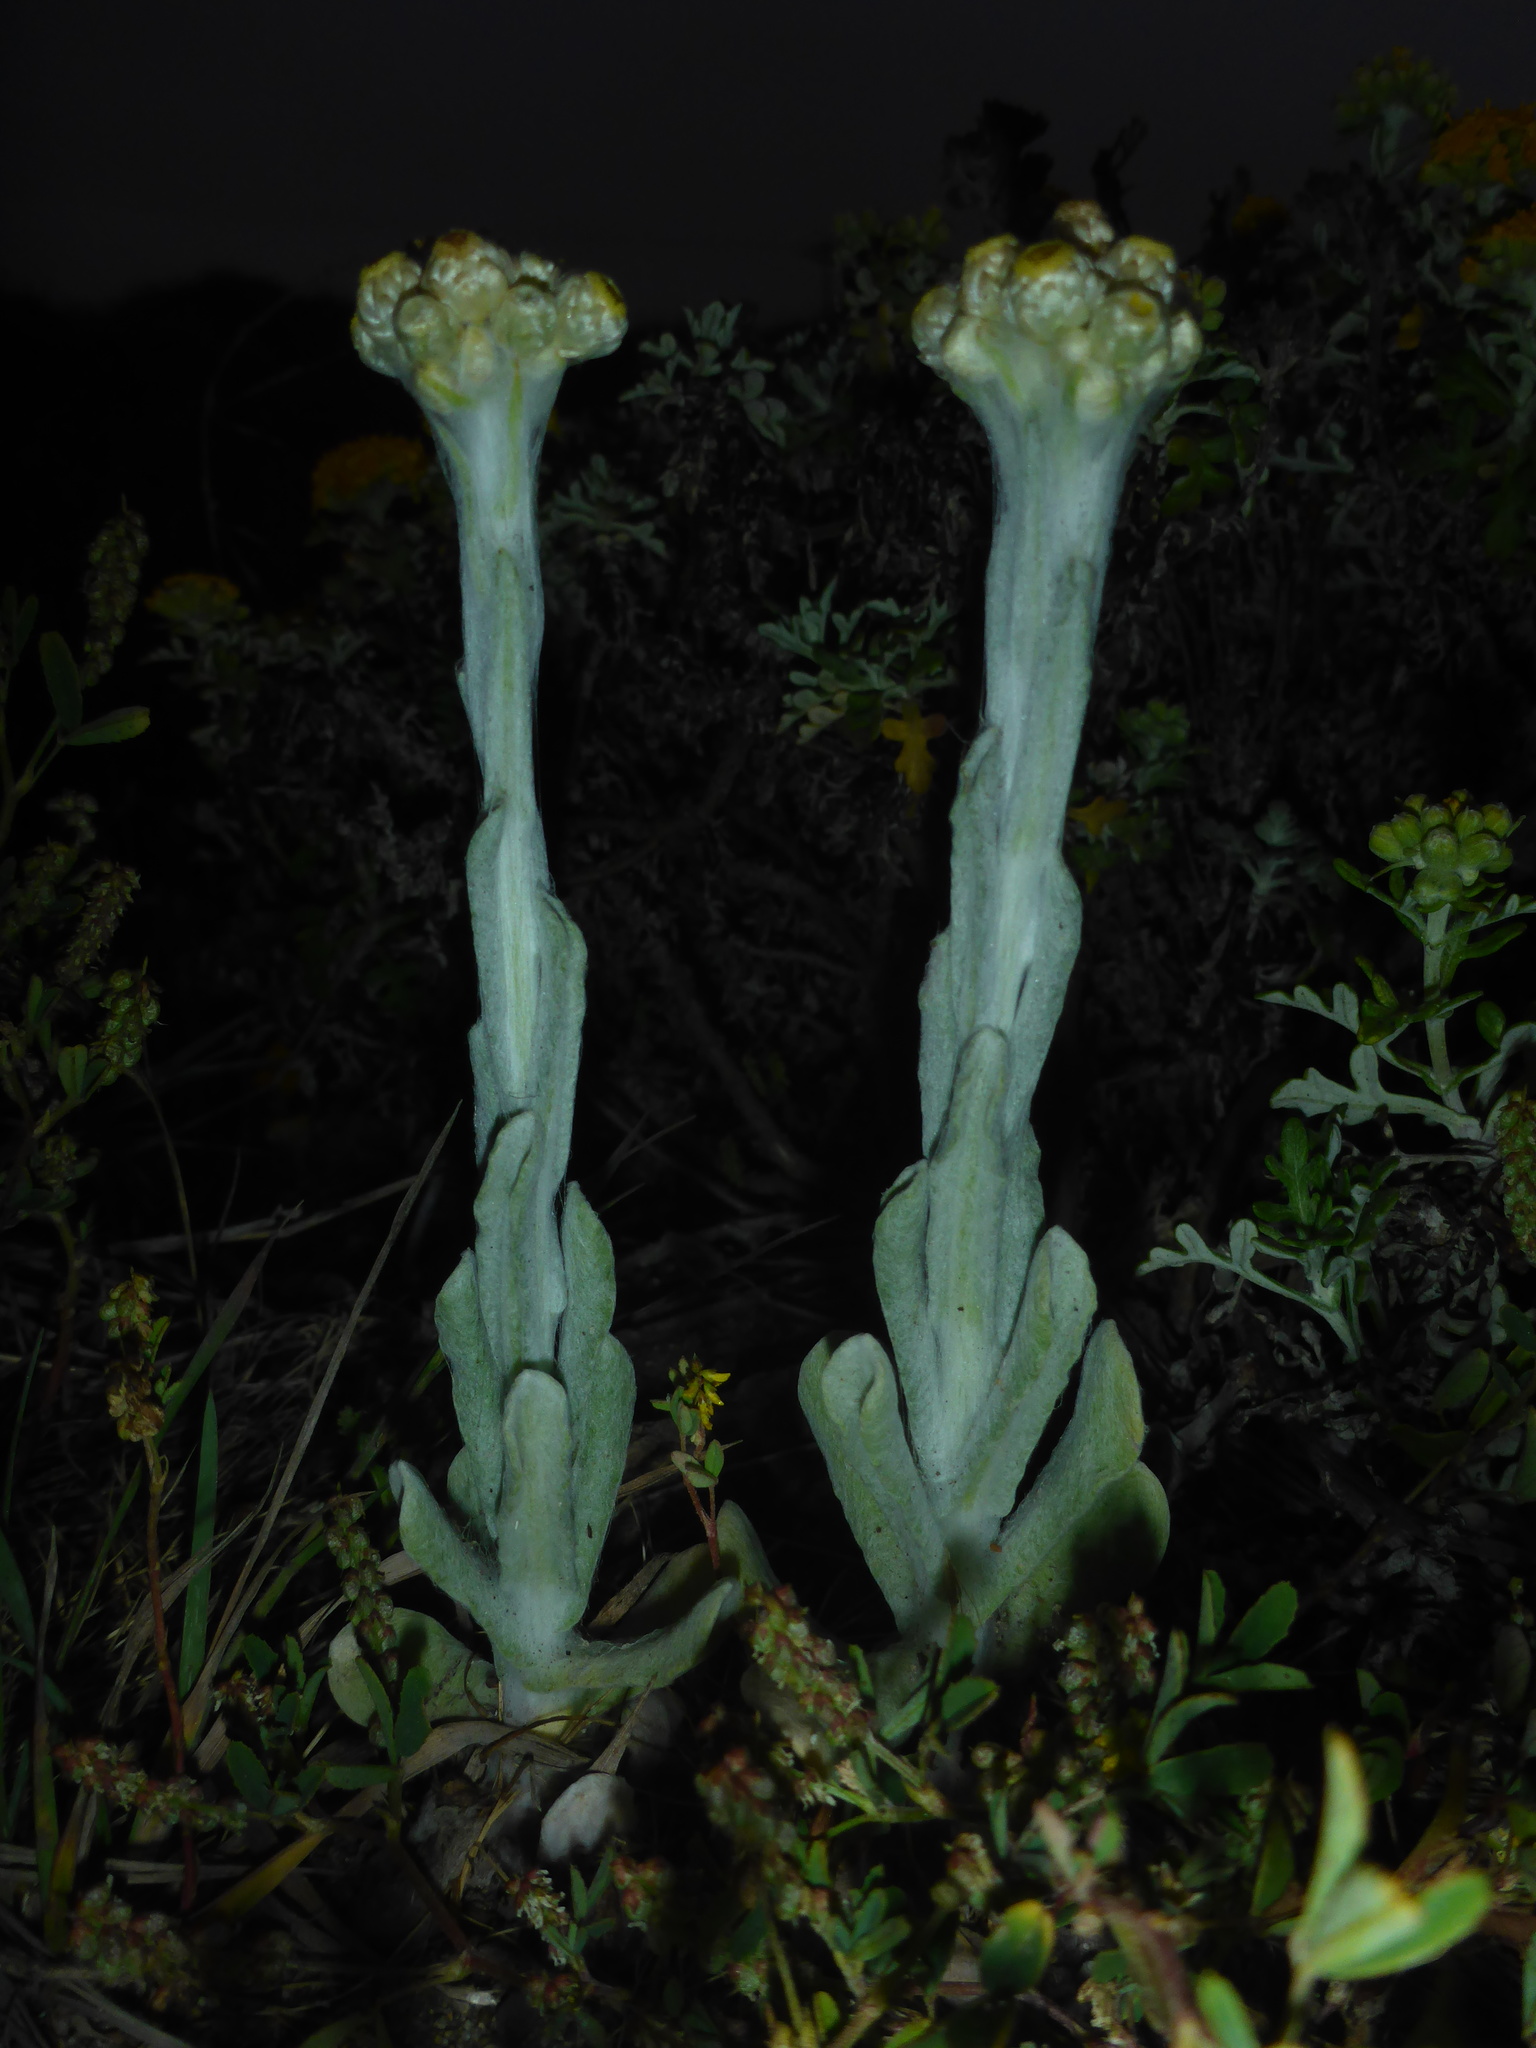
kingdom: Plantae
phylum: Tracheophyta
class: Magnoliopsida
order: Asterales
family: Asteraceae
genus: Pseudognaphalium
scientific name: Pseudognaphalium stramineum
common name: Cotton-batting-plant
